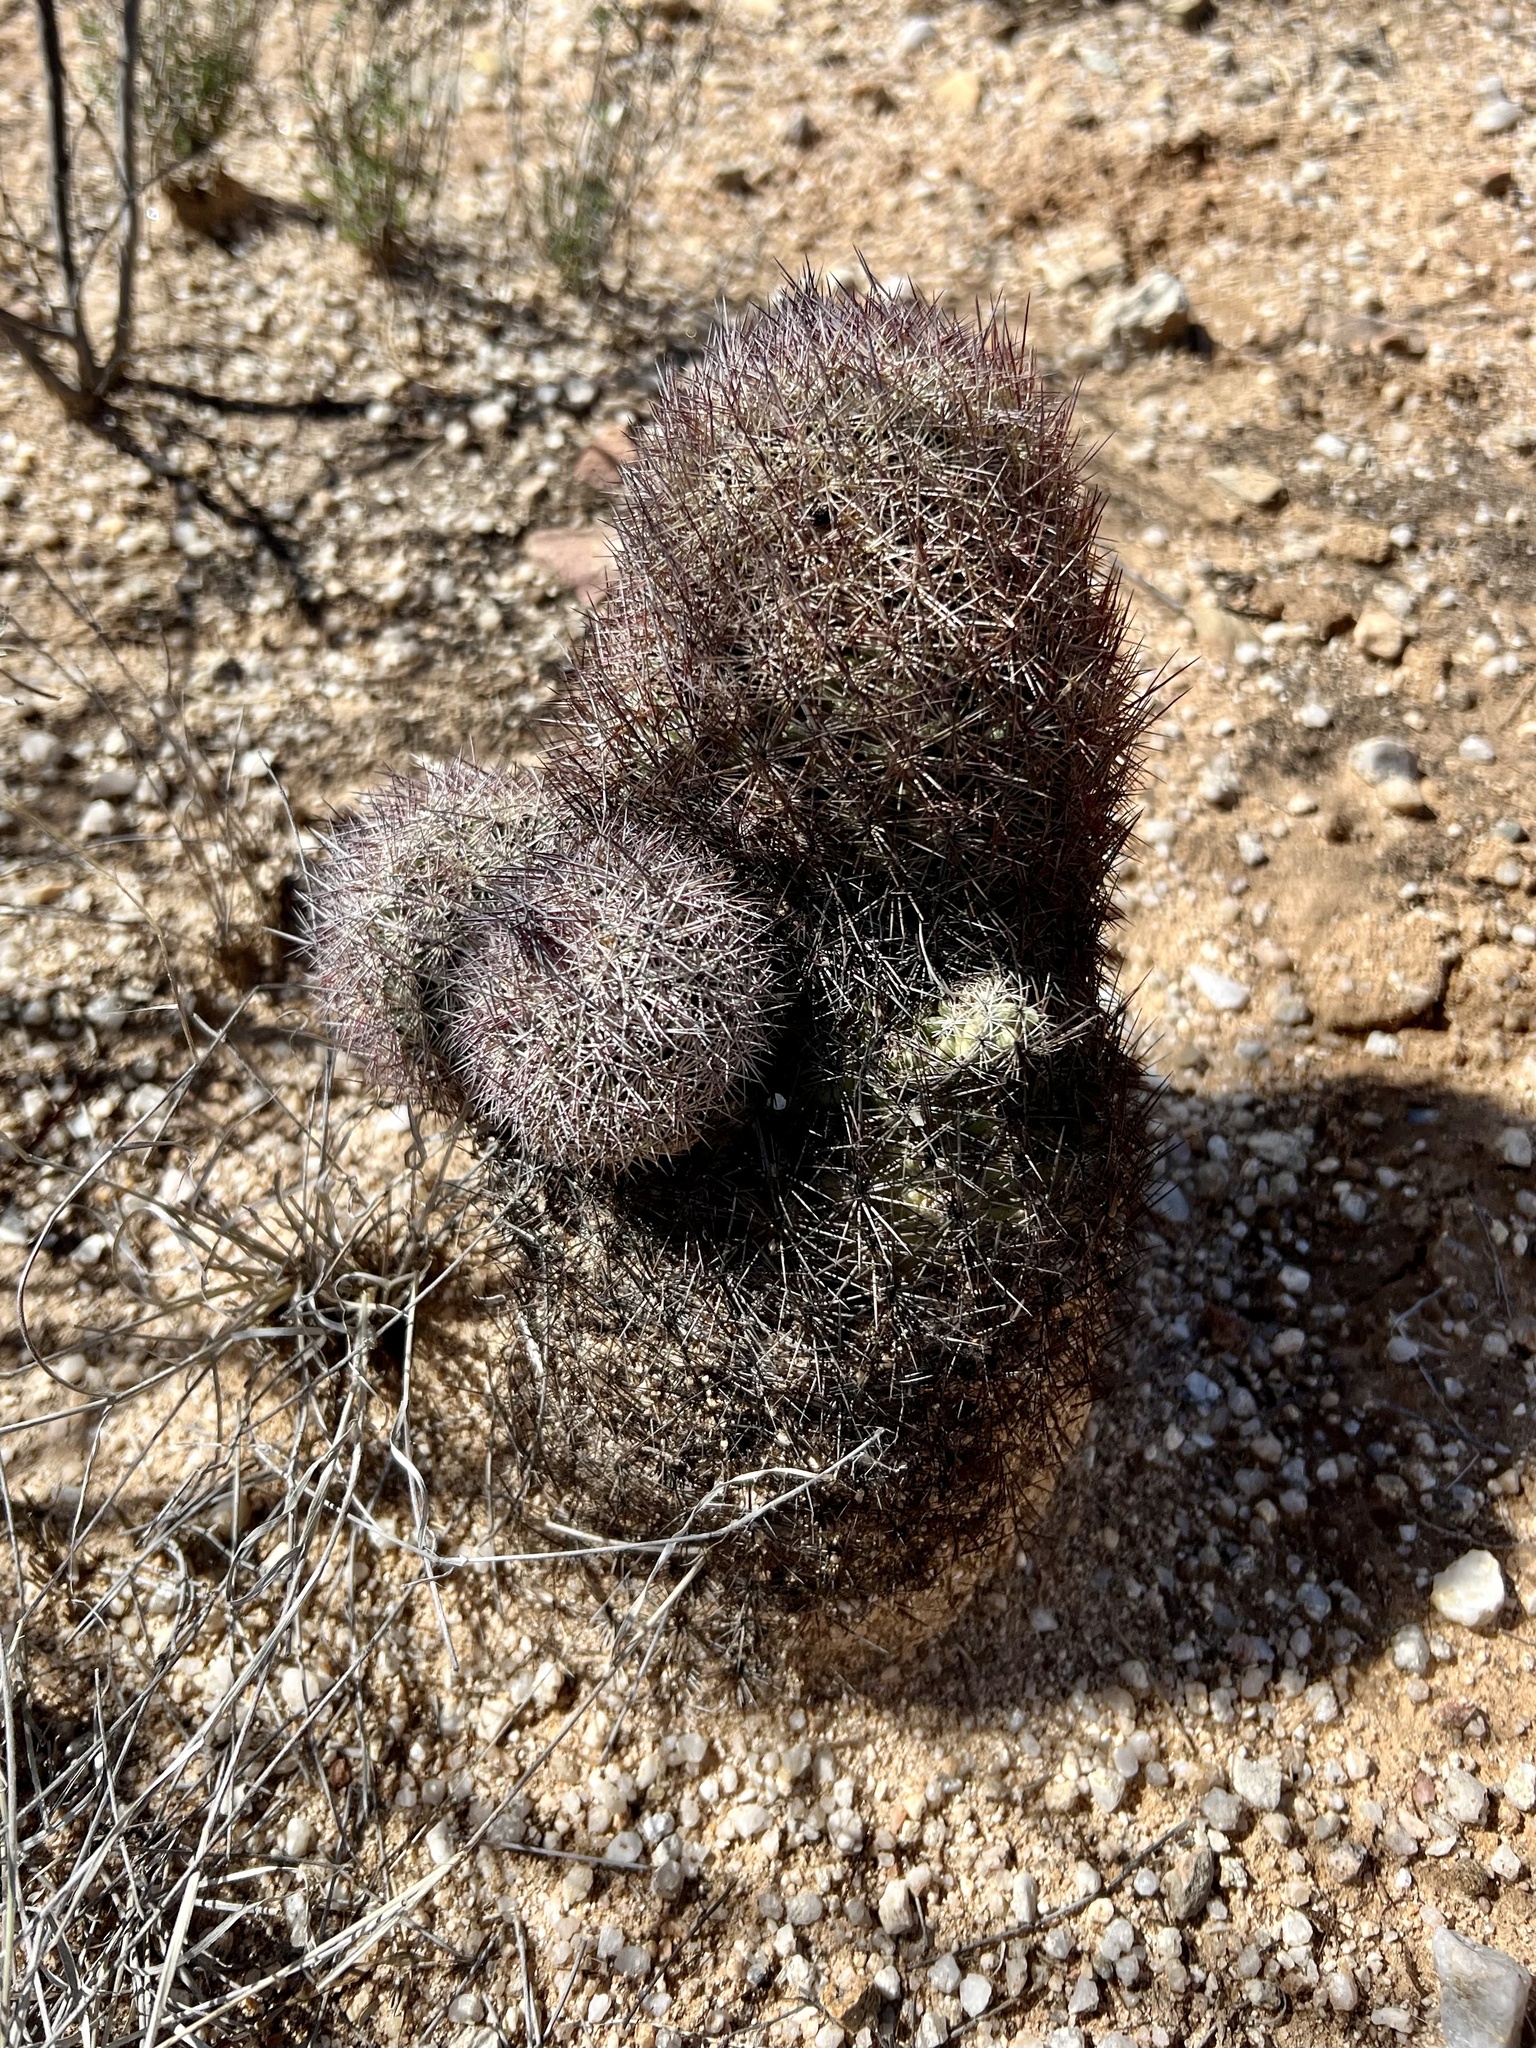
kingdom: Plantae
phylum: Tracheophyta
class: Magnoliopsida
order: Caryophyllales
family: Cactaceae
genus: Sclerocactus
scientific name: Sclerocactus johnsonii
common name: Eight-spine fishhook cactus
